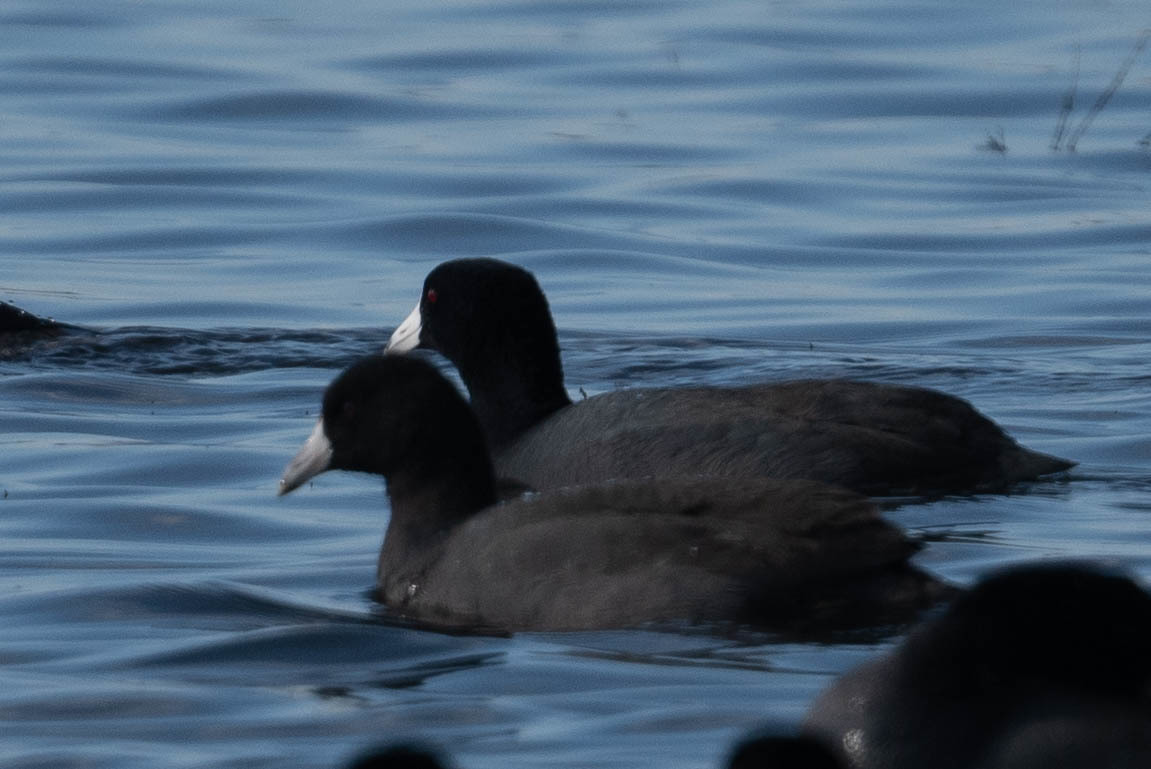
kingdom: Animalia
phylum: Chordata
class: Aves
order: Gruiformes
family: Rallidae
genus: Fulica
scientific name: Fulica americana
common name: American coot
